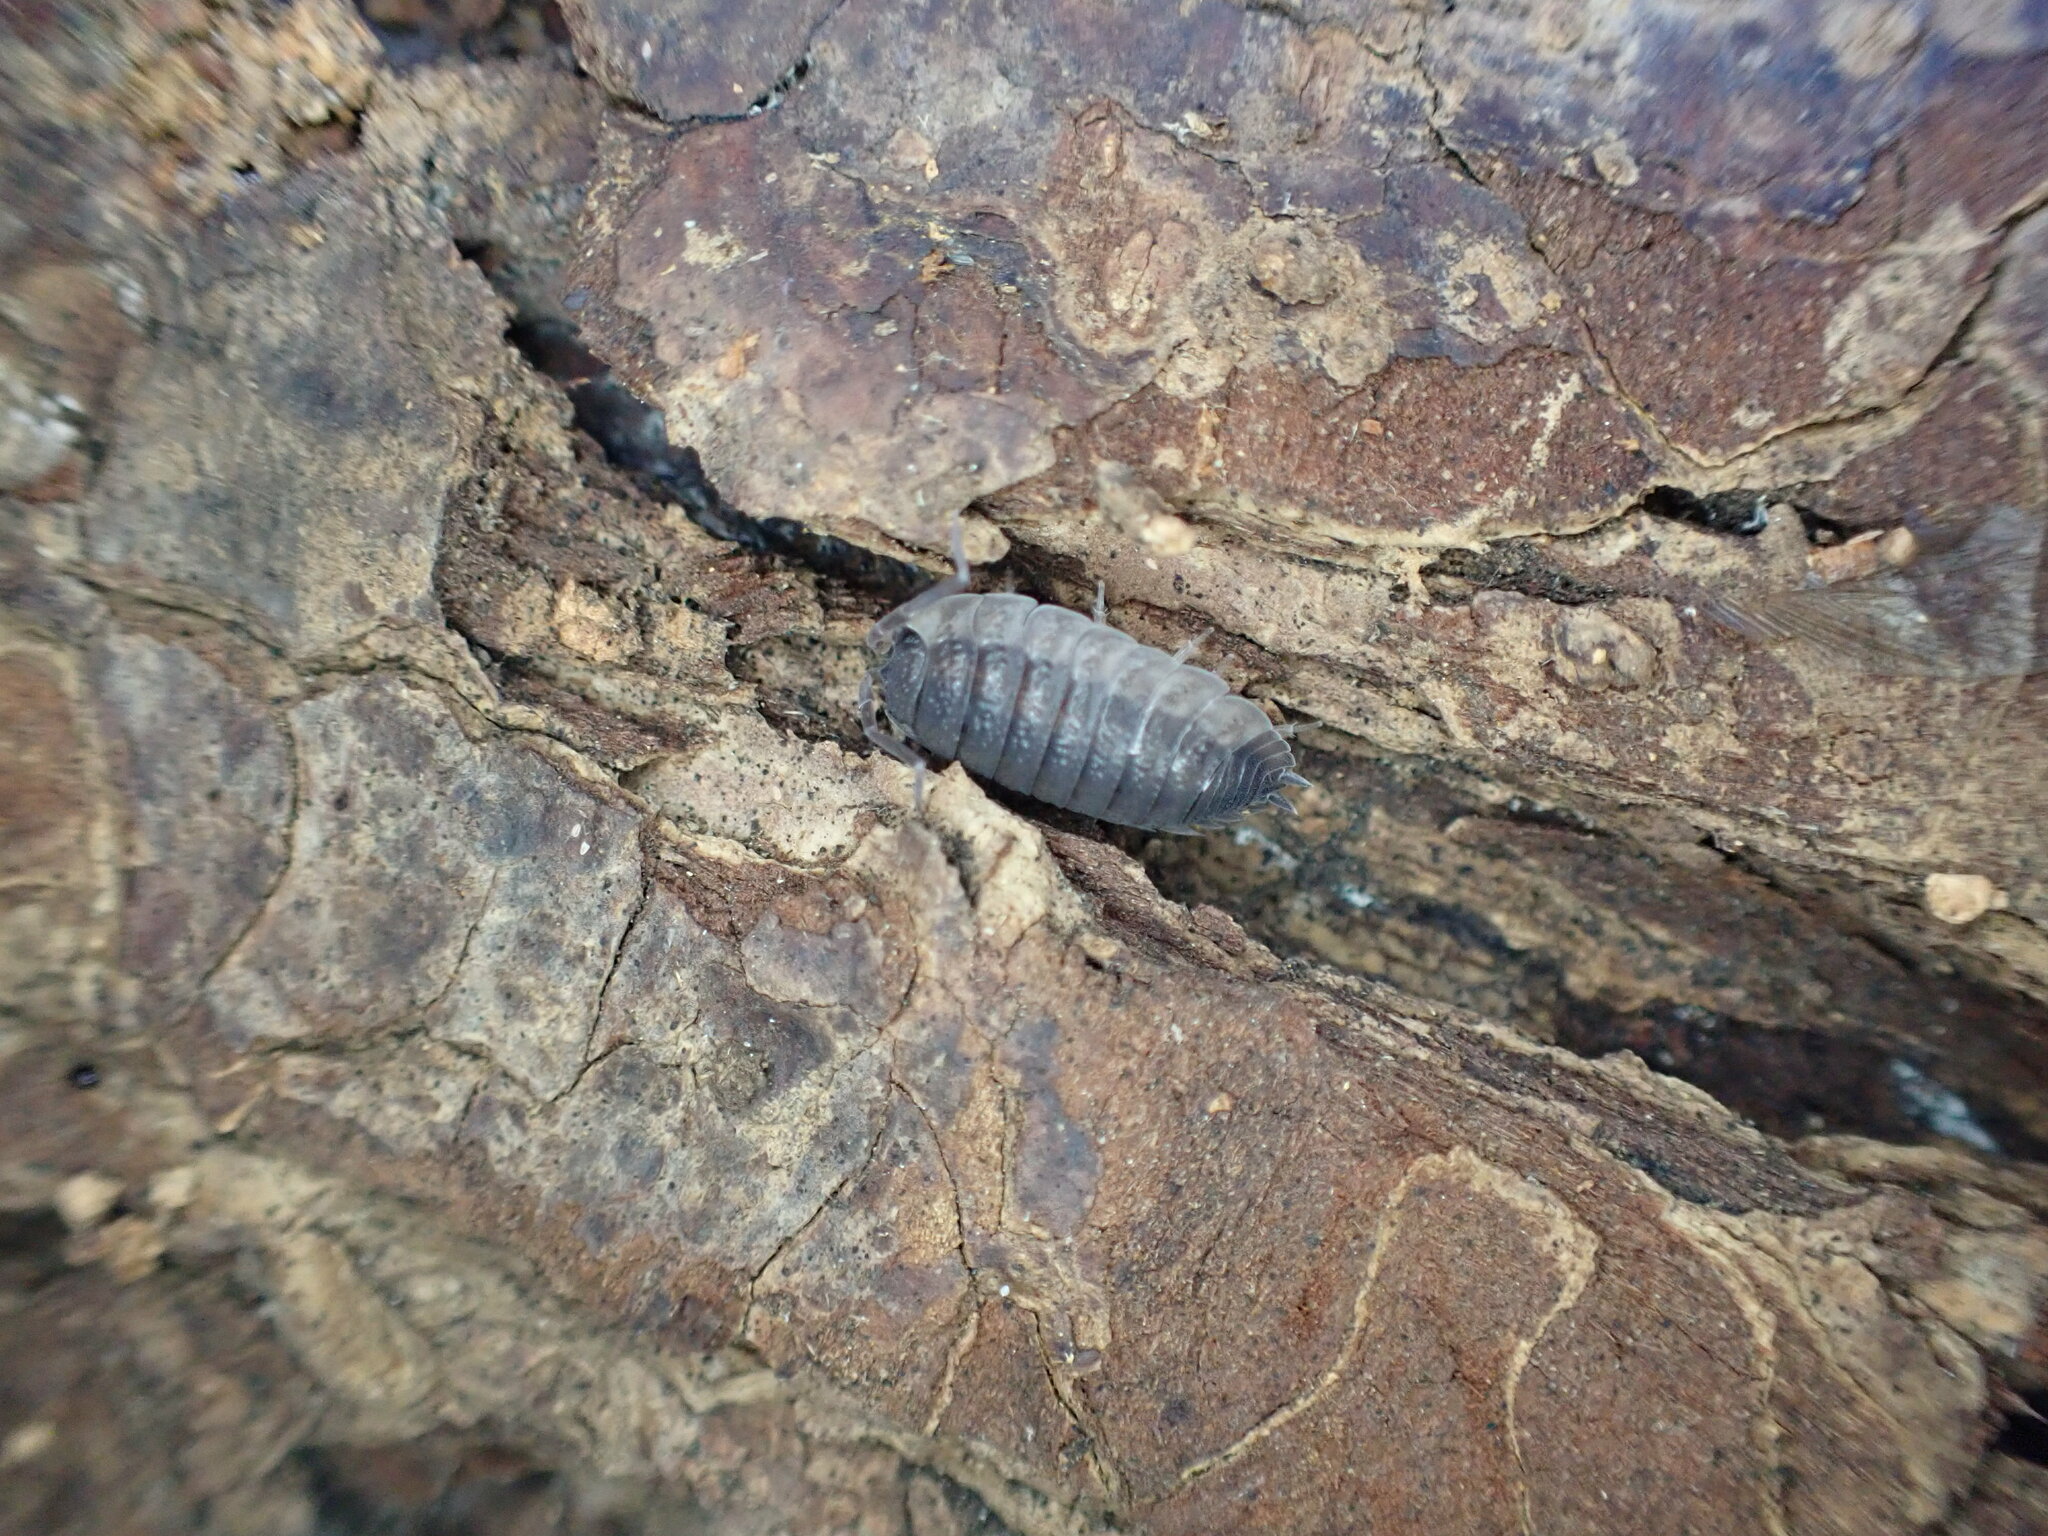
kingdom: Animalia
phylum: Arthropoda
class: Malacostraca
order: Isopoda
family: Porcellionidae
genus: Porcellio
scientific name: Porcellio scaber
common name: Common rough woodlouse
